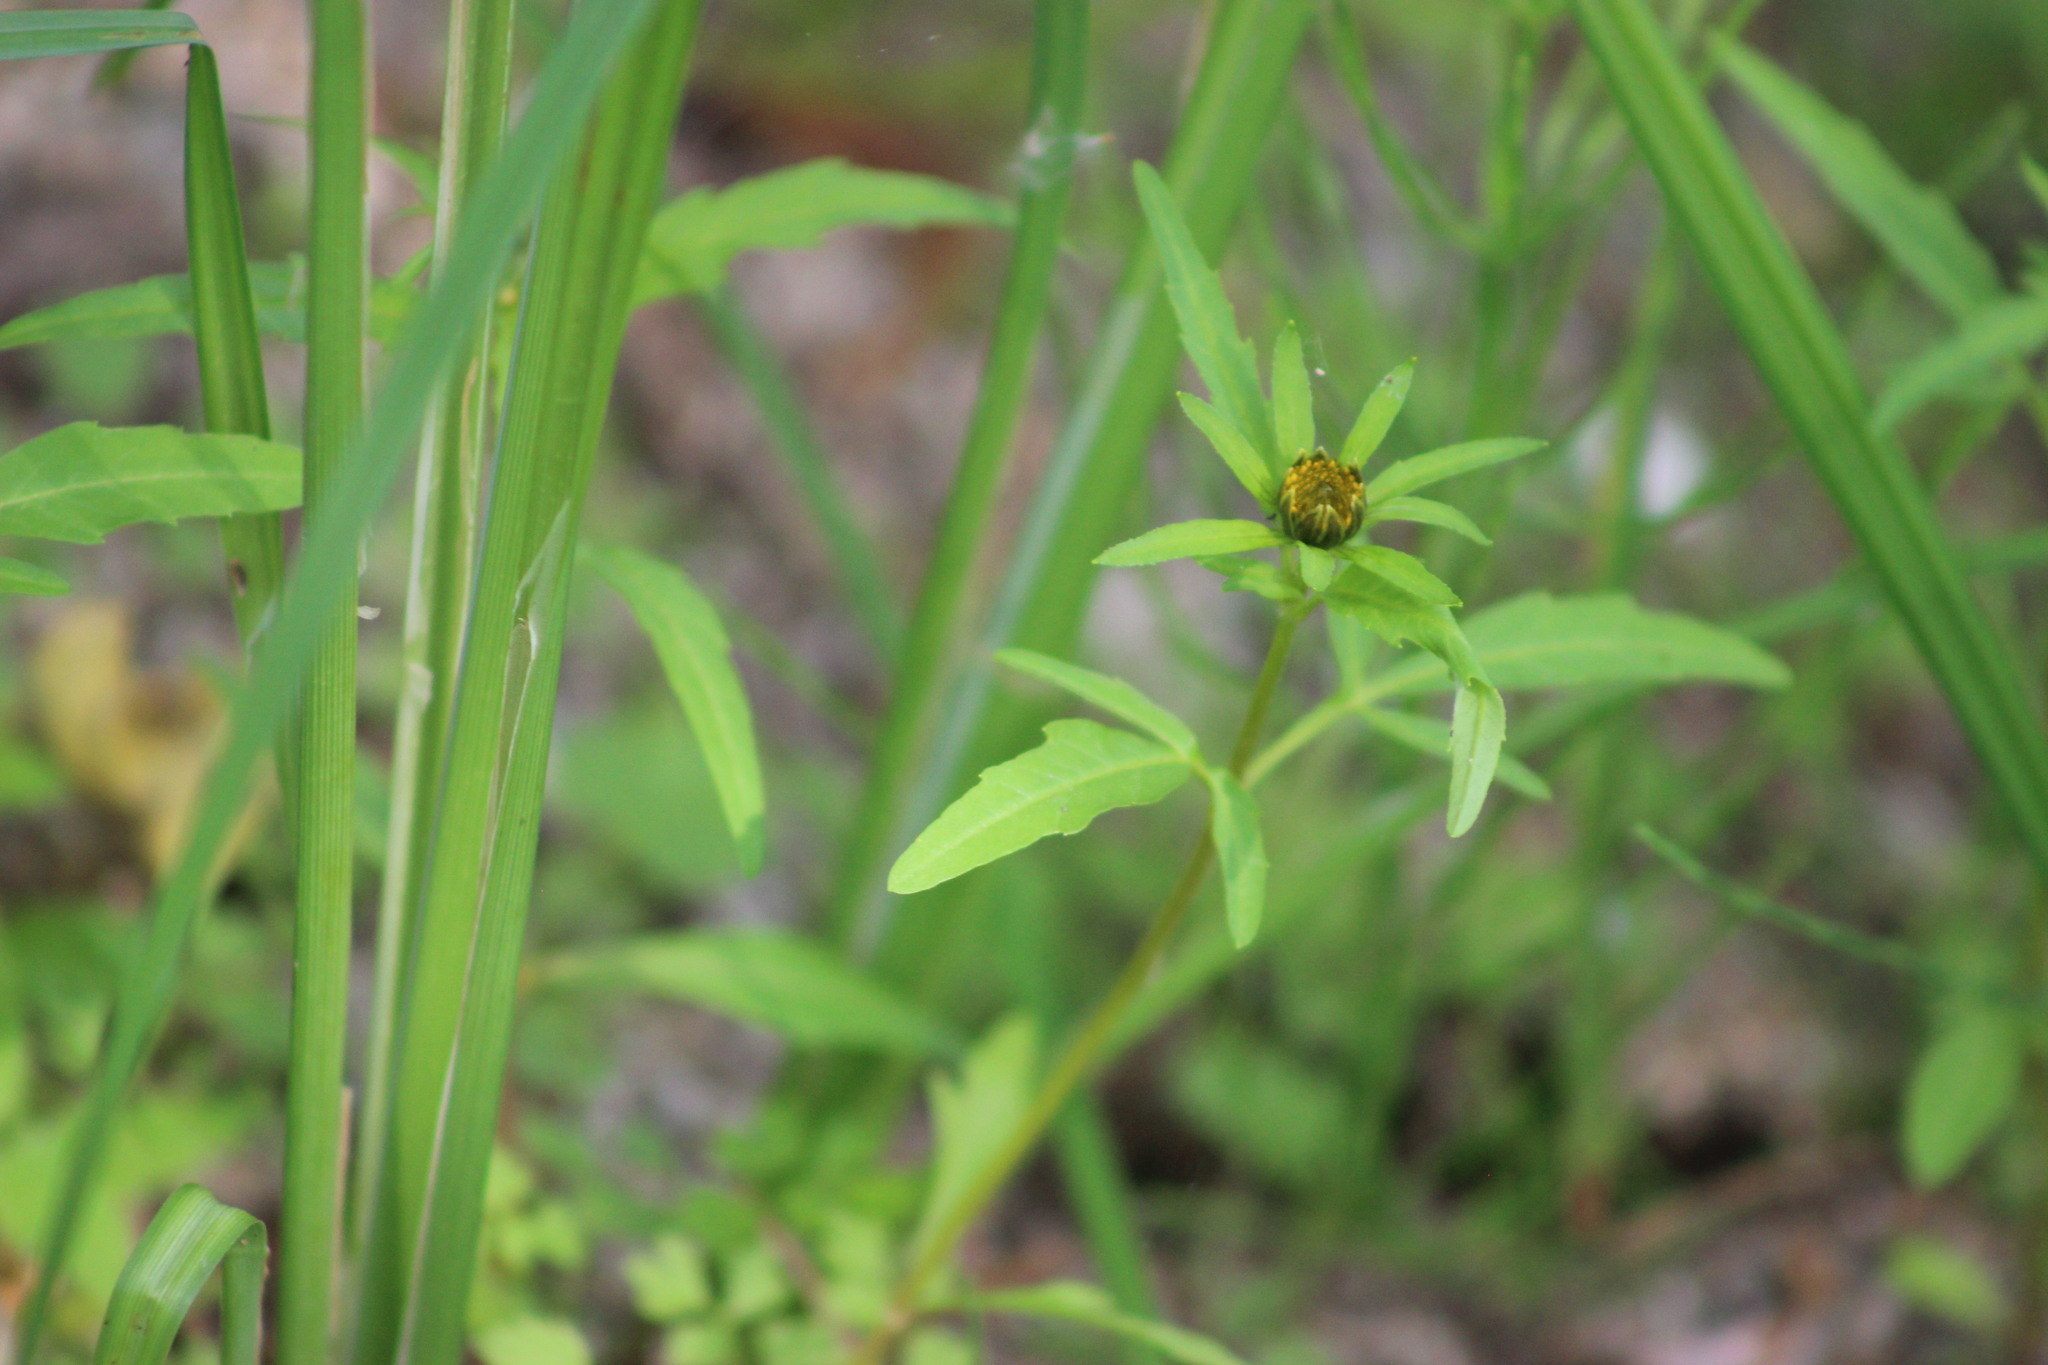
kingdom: Plantae
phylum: Tracheophyta
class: Magnoliopsida
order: Asterales
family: Asteraceae
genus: Bidens
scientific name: Bidens tripartita
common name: Trifid bur-marigold
